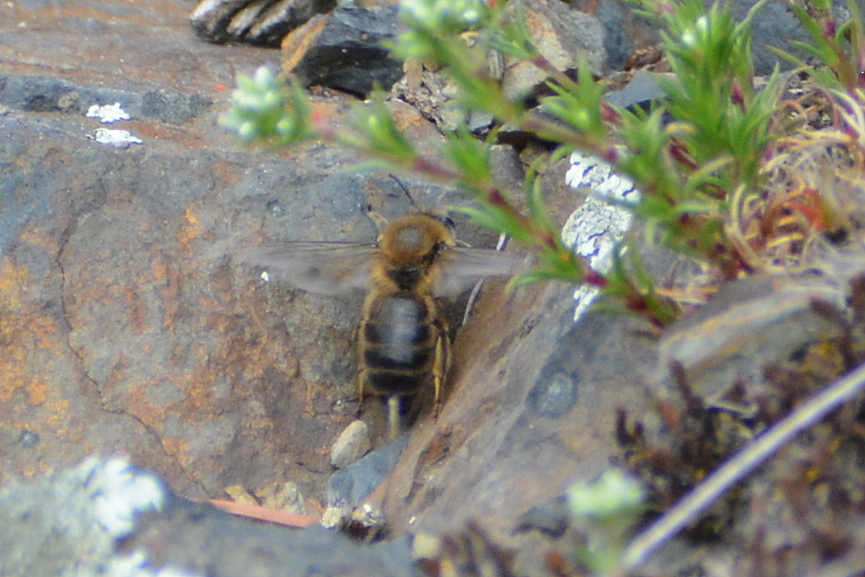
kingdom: Animalia
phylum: Arthropoda
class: Insecta
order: Hymenoptera
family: Apidae
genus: Apis
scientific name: Apis mellifera
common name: Honey bee
